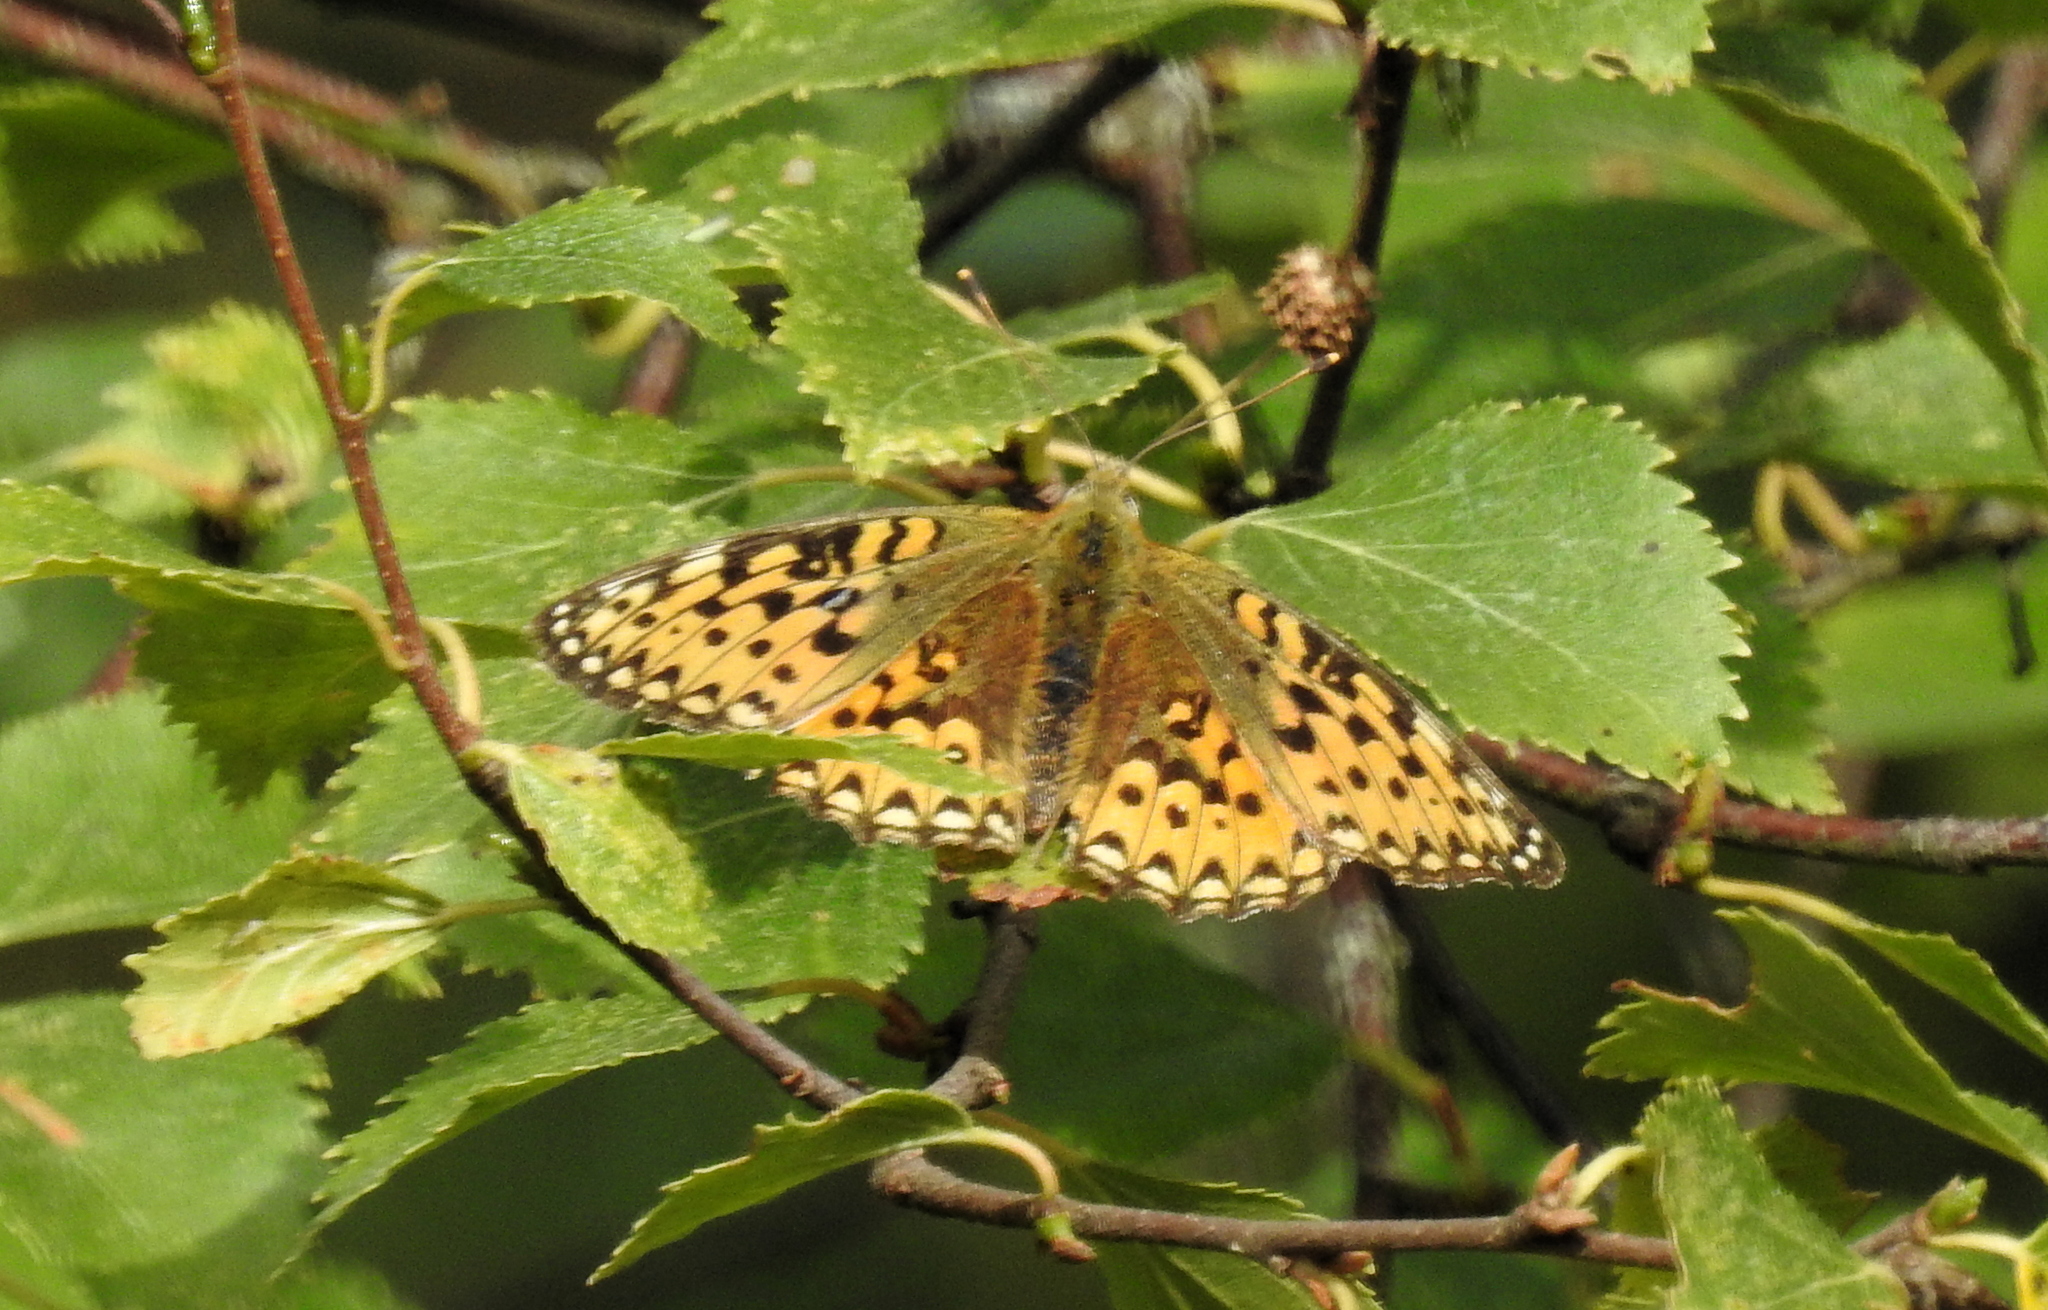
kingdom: Animalia
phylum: Arthropoda
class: Insecta
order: Lepidoptera
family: Nymphalidae
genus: Speyeria
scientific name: Speyeria aglaja
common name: Dark green fritillary
